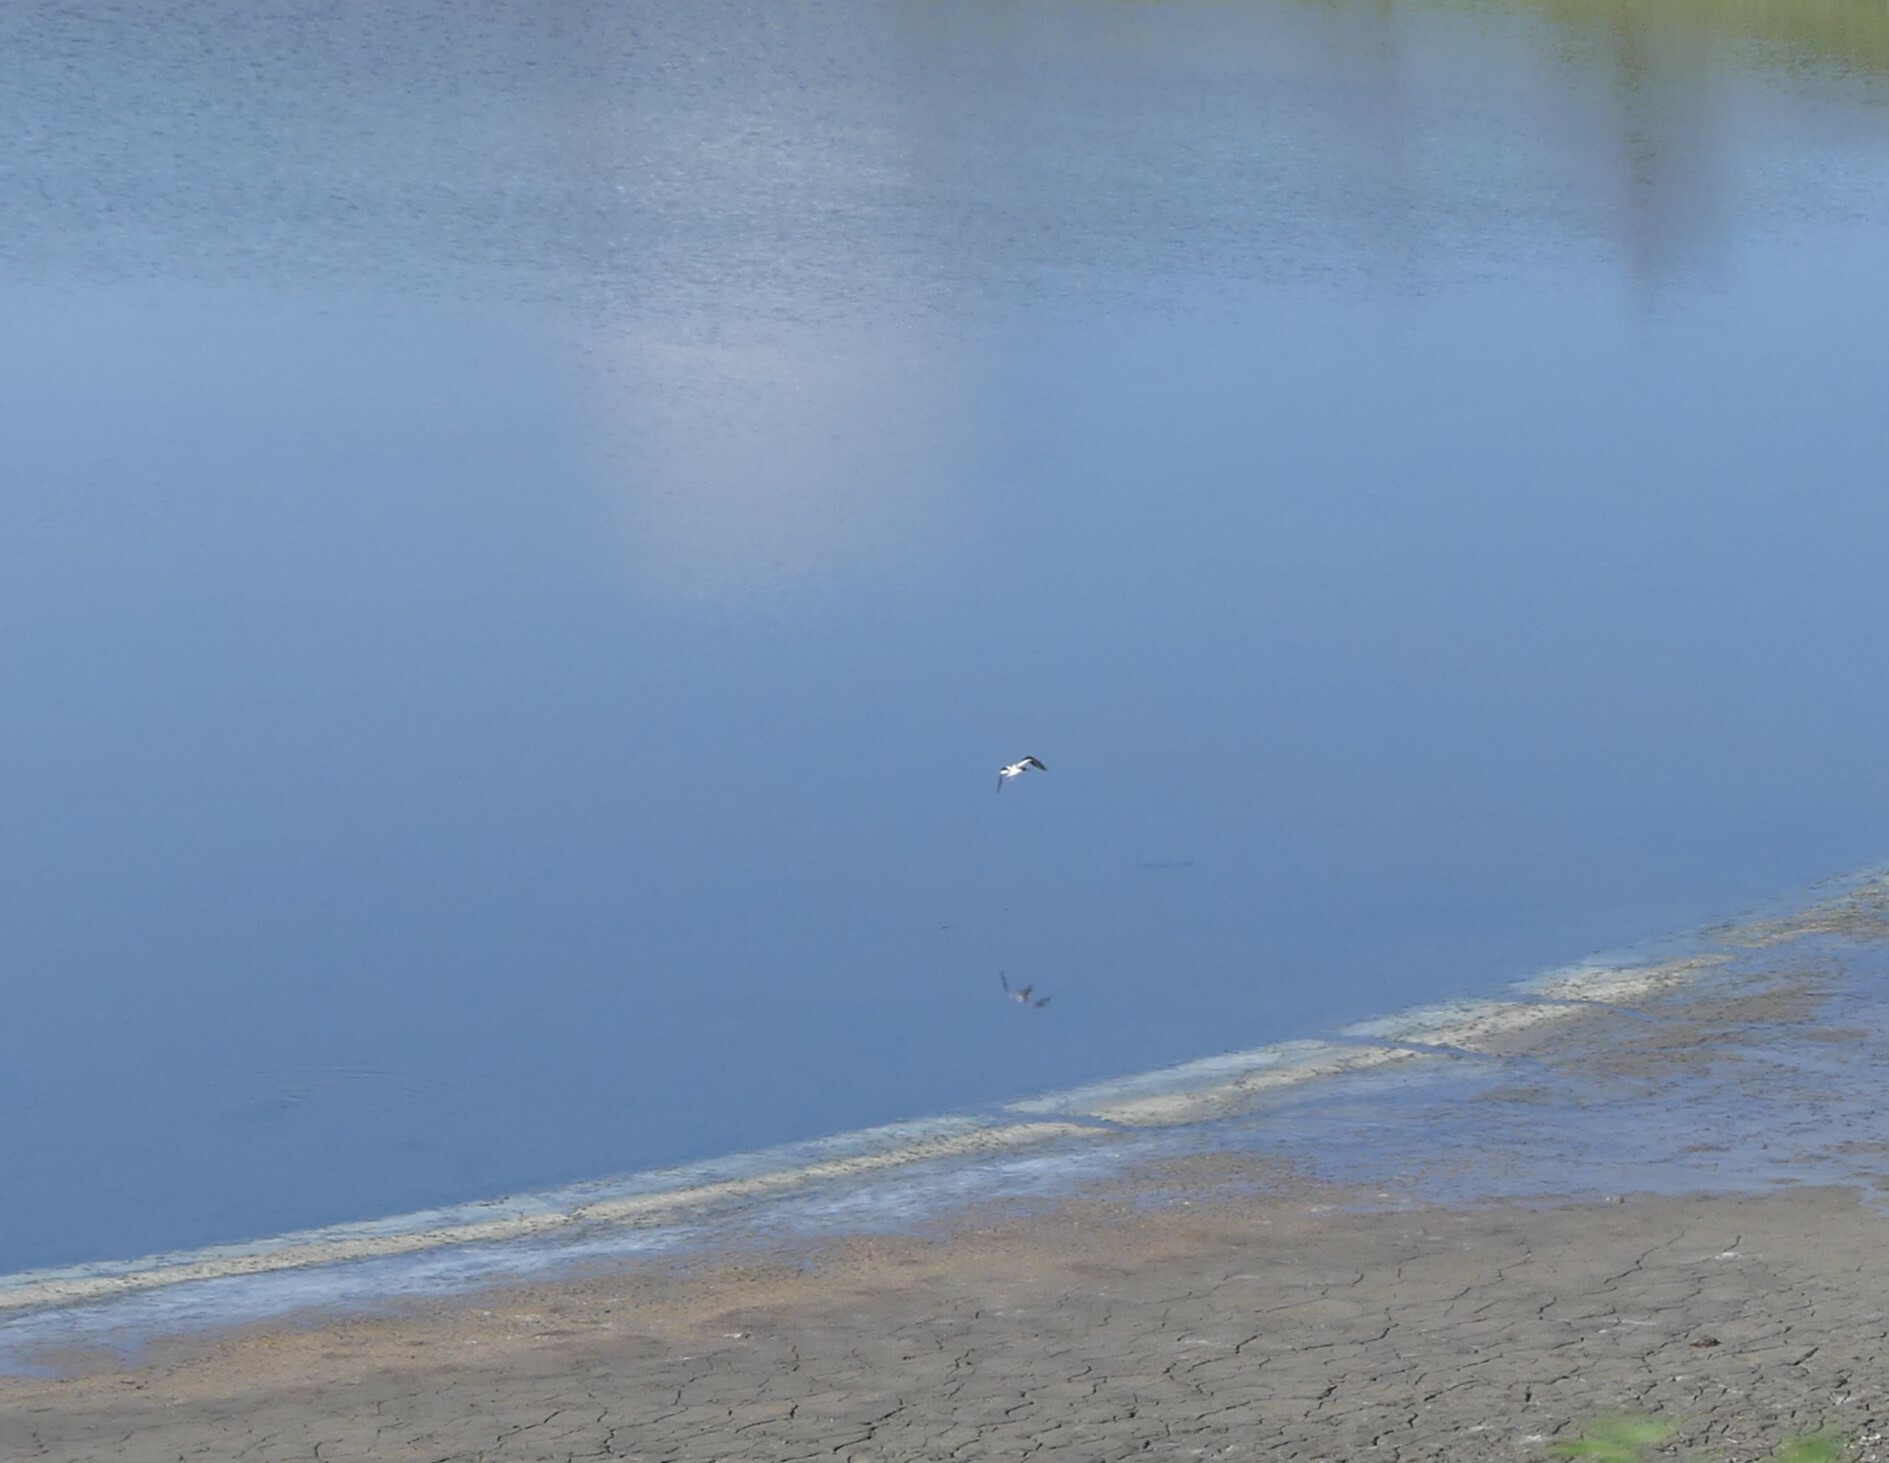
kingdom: Animalia
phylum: Chordata
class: Aves
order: Charadriiformes
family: Recurvirostridae
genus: Recurvirostra
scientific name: Recurvirostra americana
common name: American avocet
